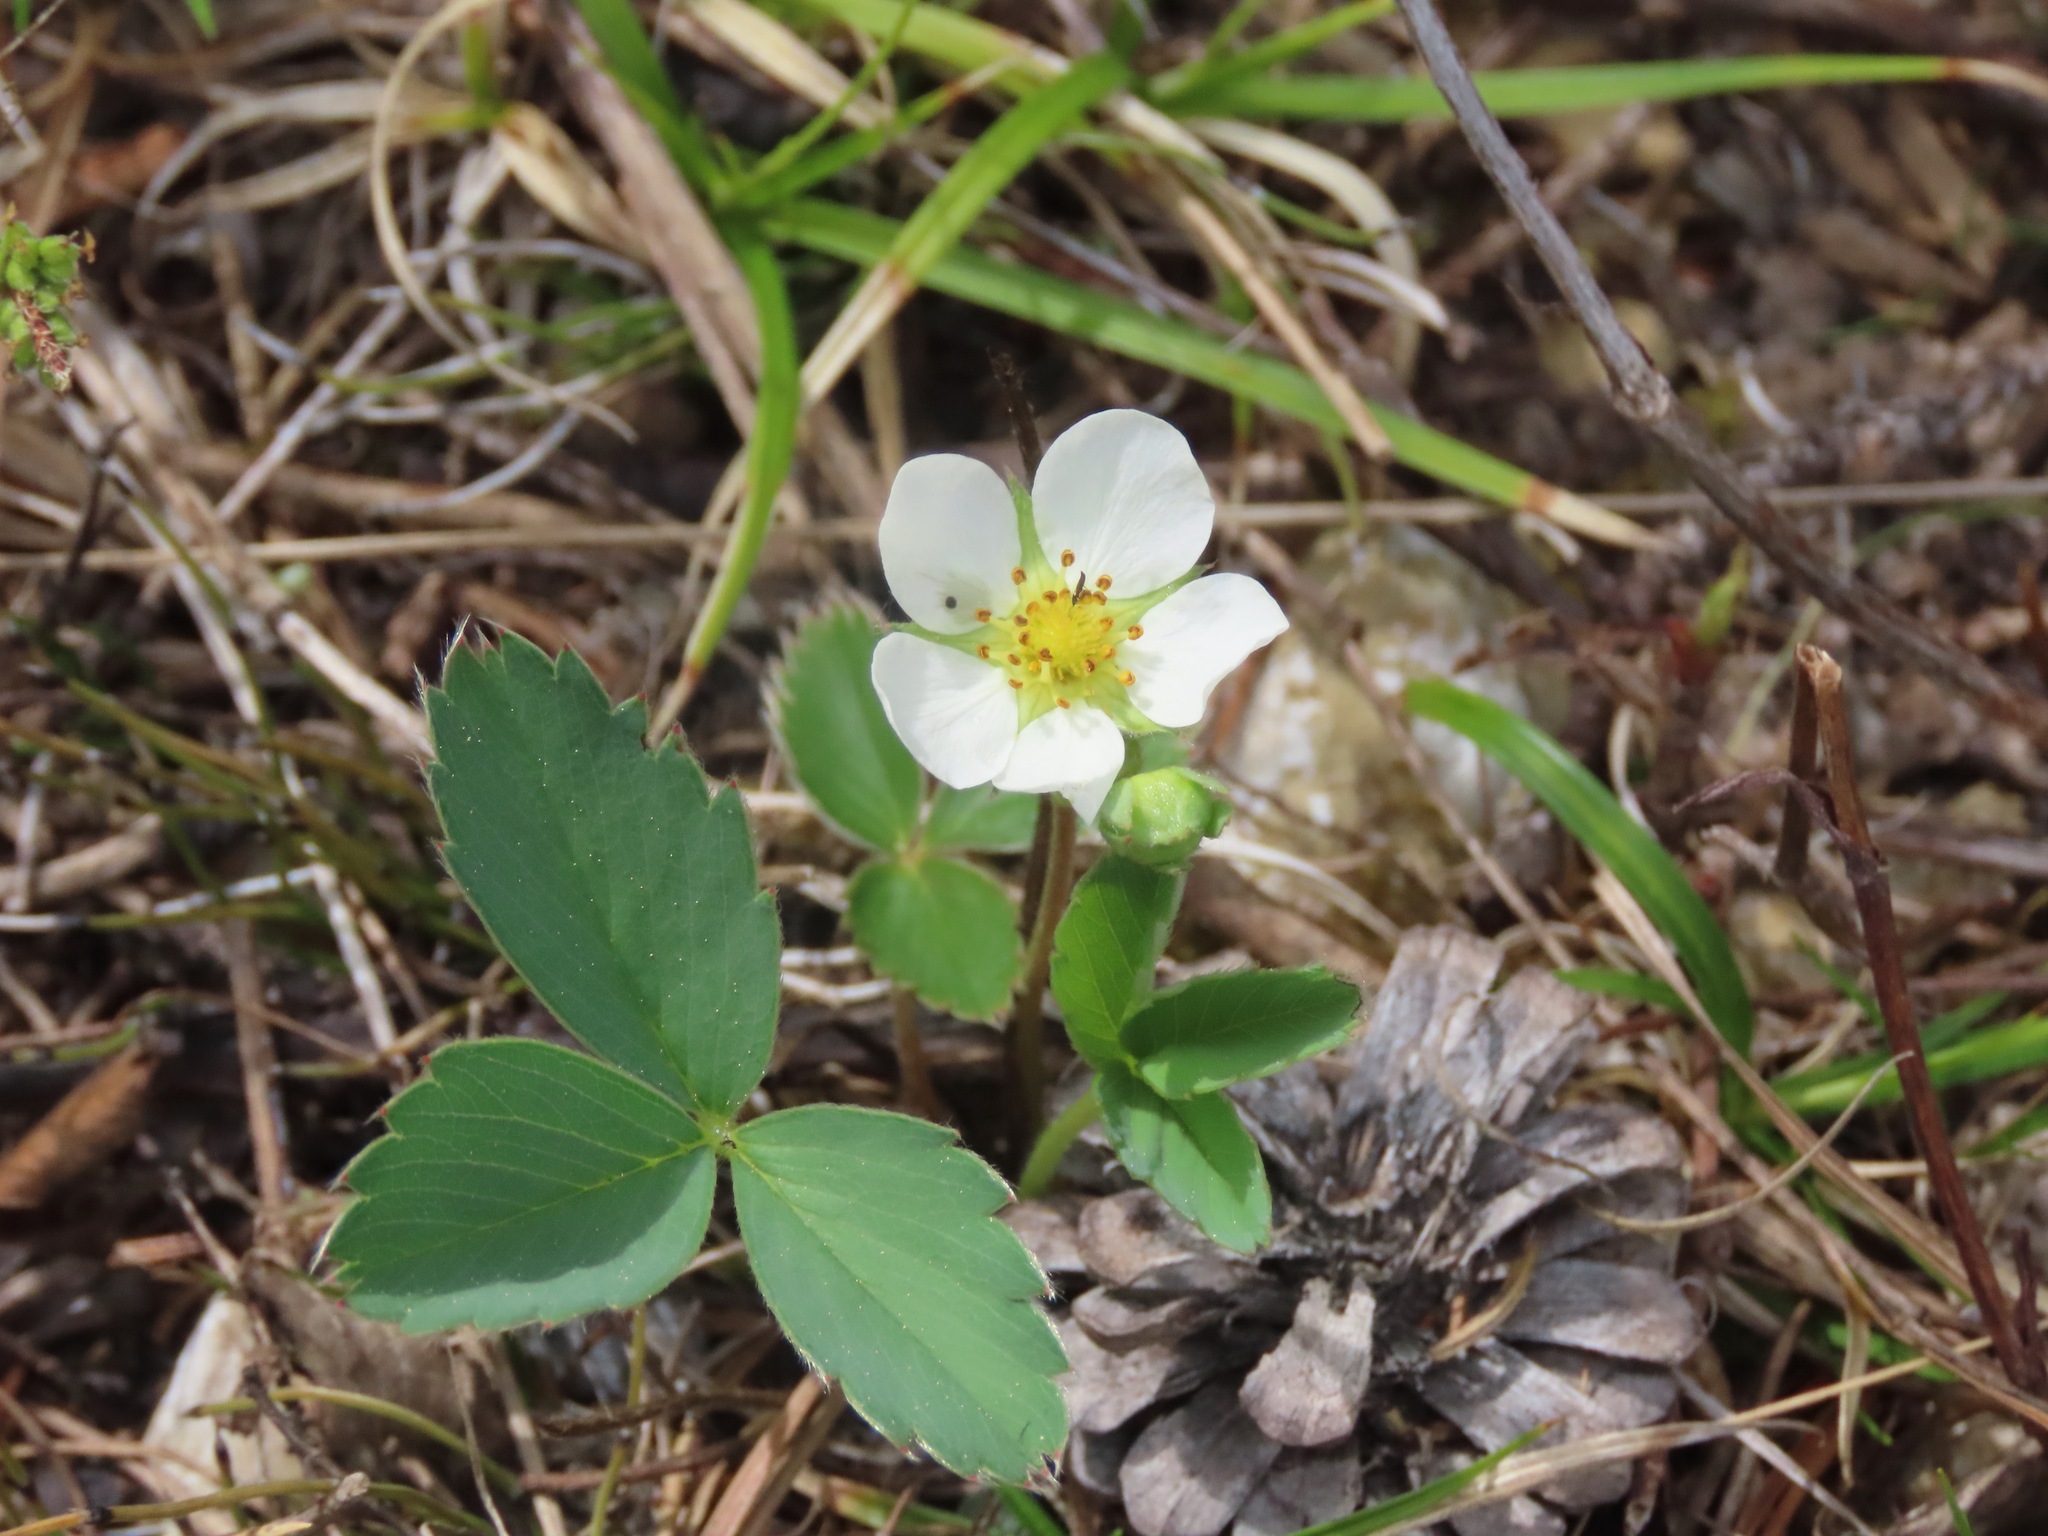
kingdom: Plantae
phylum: Tracheophyta
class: Magnoliopsida
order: Rosales
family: Rosaceae
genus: Fragaria
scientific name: Fragaria virginiana
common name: Thickleaved wild strawberry
